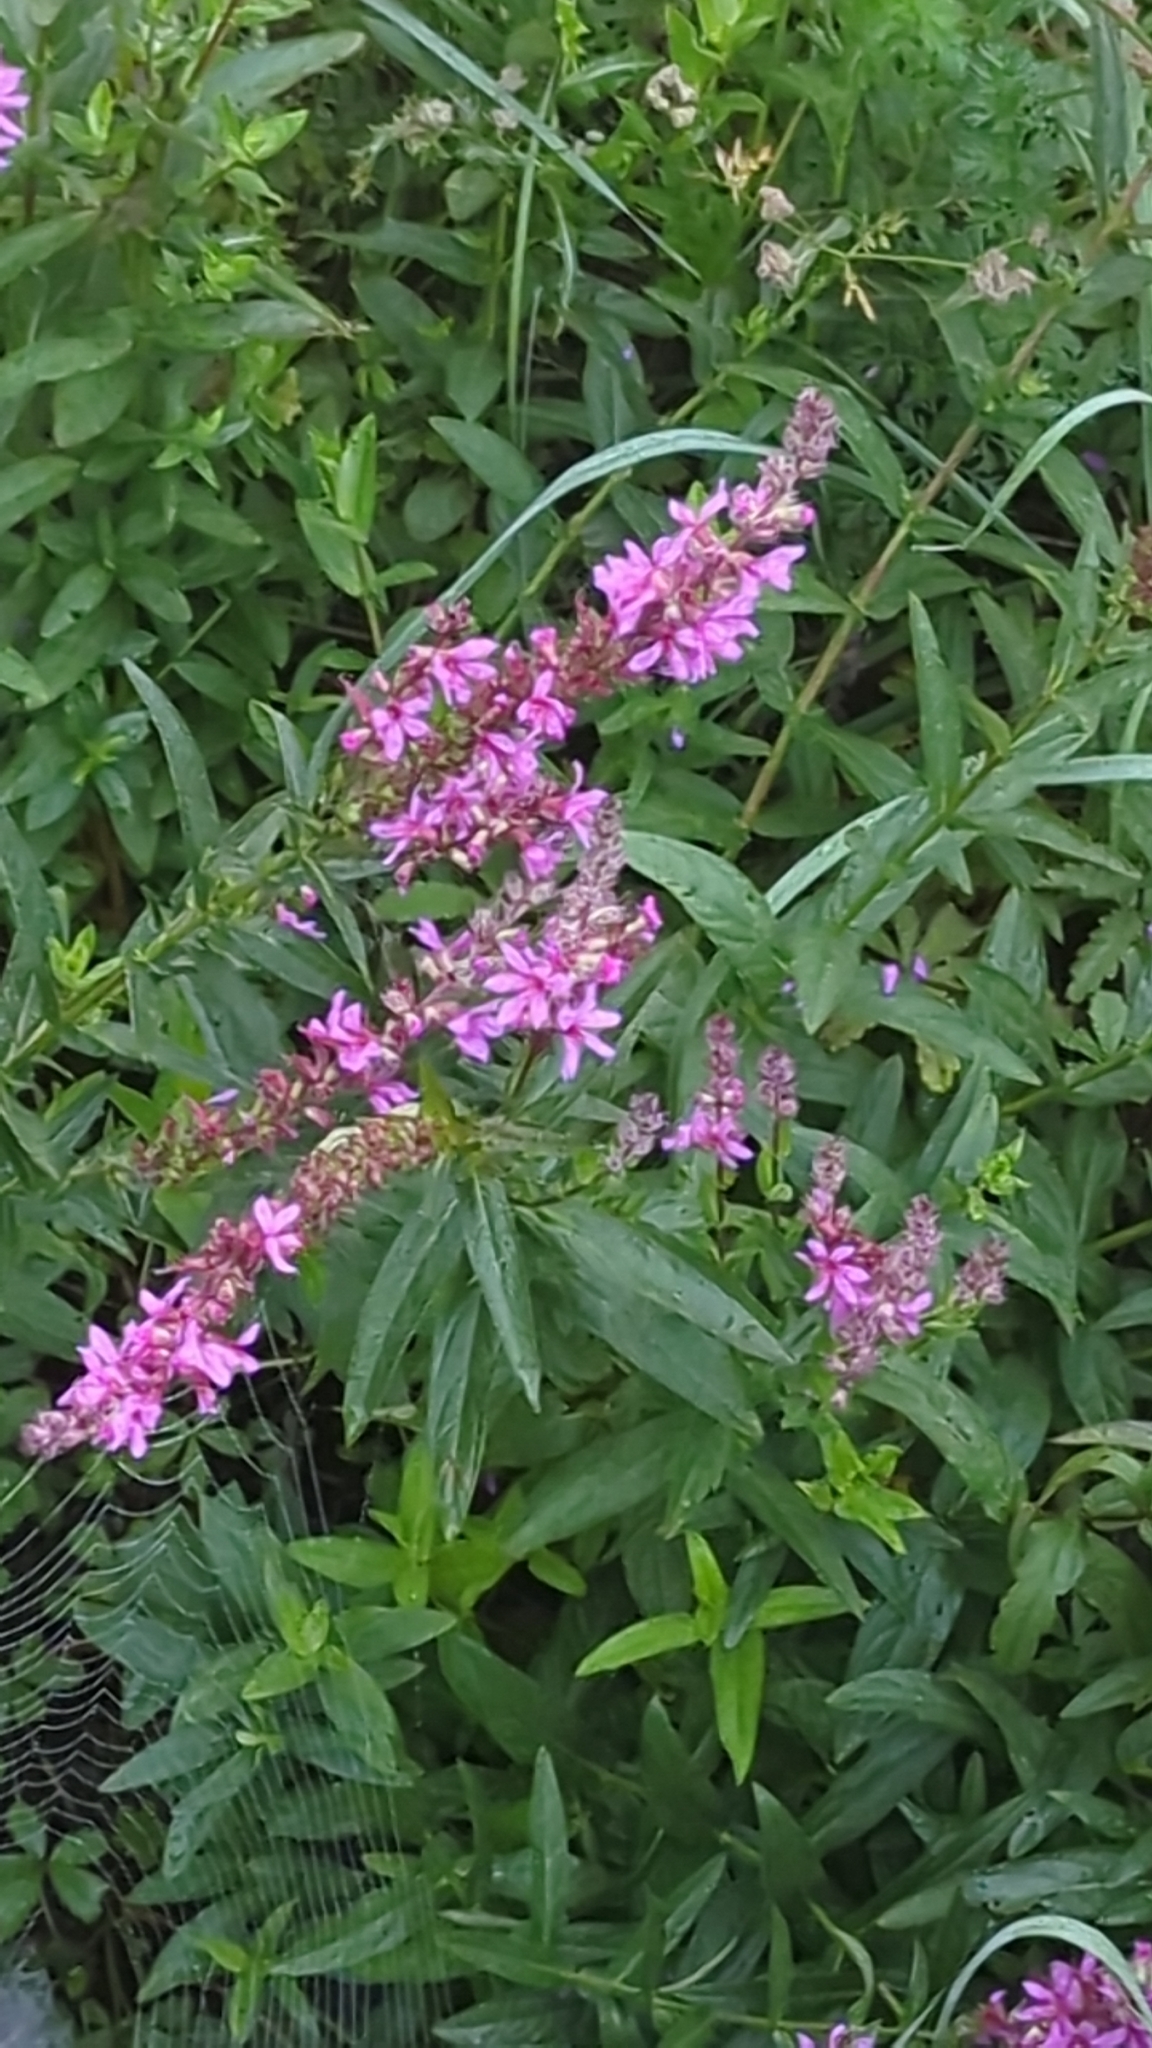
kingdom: Plantae
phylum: Tracheophyta
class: Magnoliopsida
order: Myrtales
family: Lythraceae
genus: Lythrum
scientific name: Lythrum salicaria
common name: Purple loosestrife
